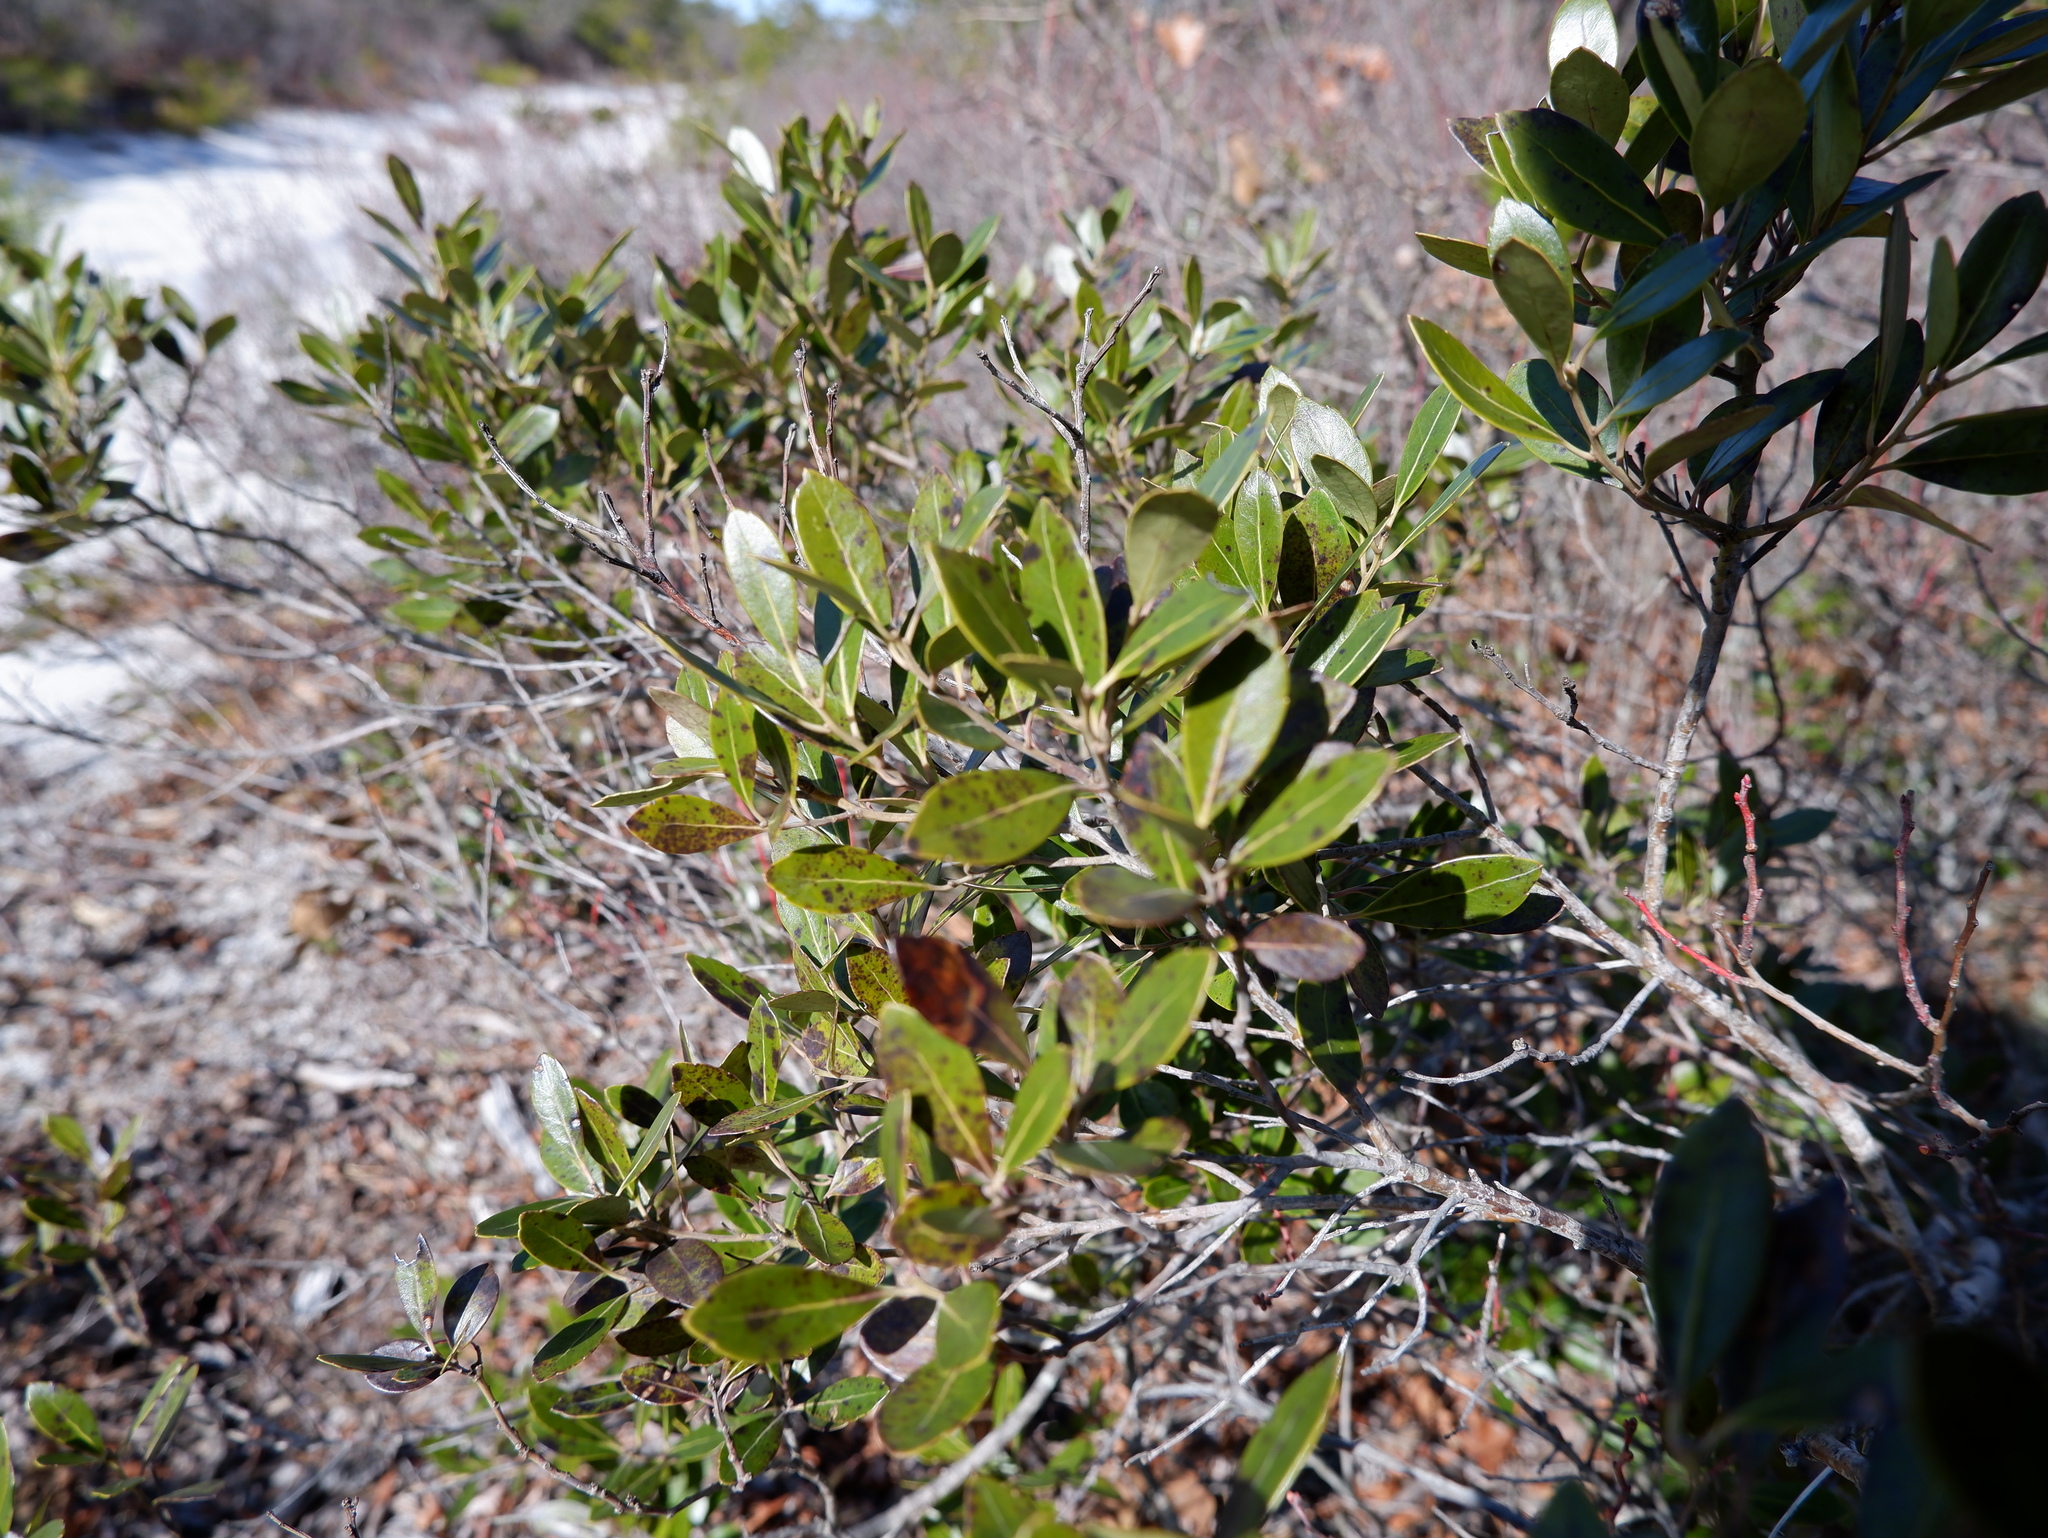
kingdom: Plantae
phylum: Tracheophyta
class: Magnoliopsida
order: Aquifoliales
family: Aquifoliaceae
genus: Ilex
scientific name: Ilex glabra
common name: Bitter gallberry
